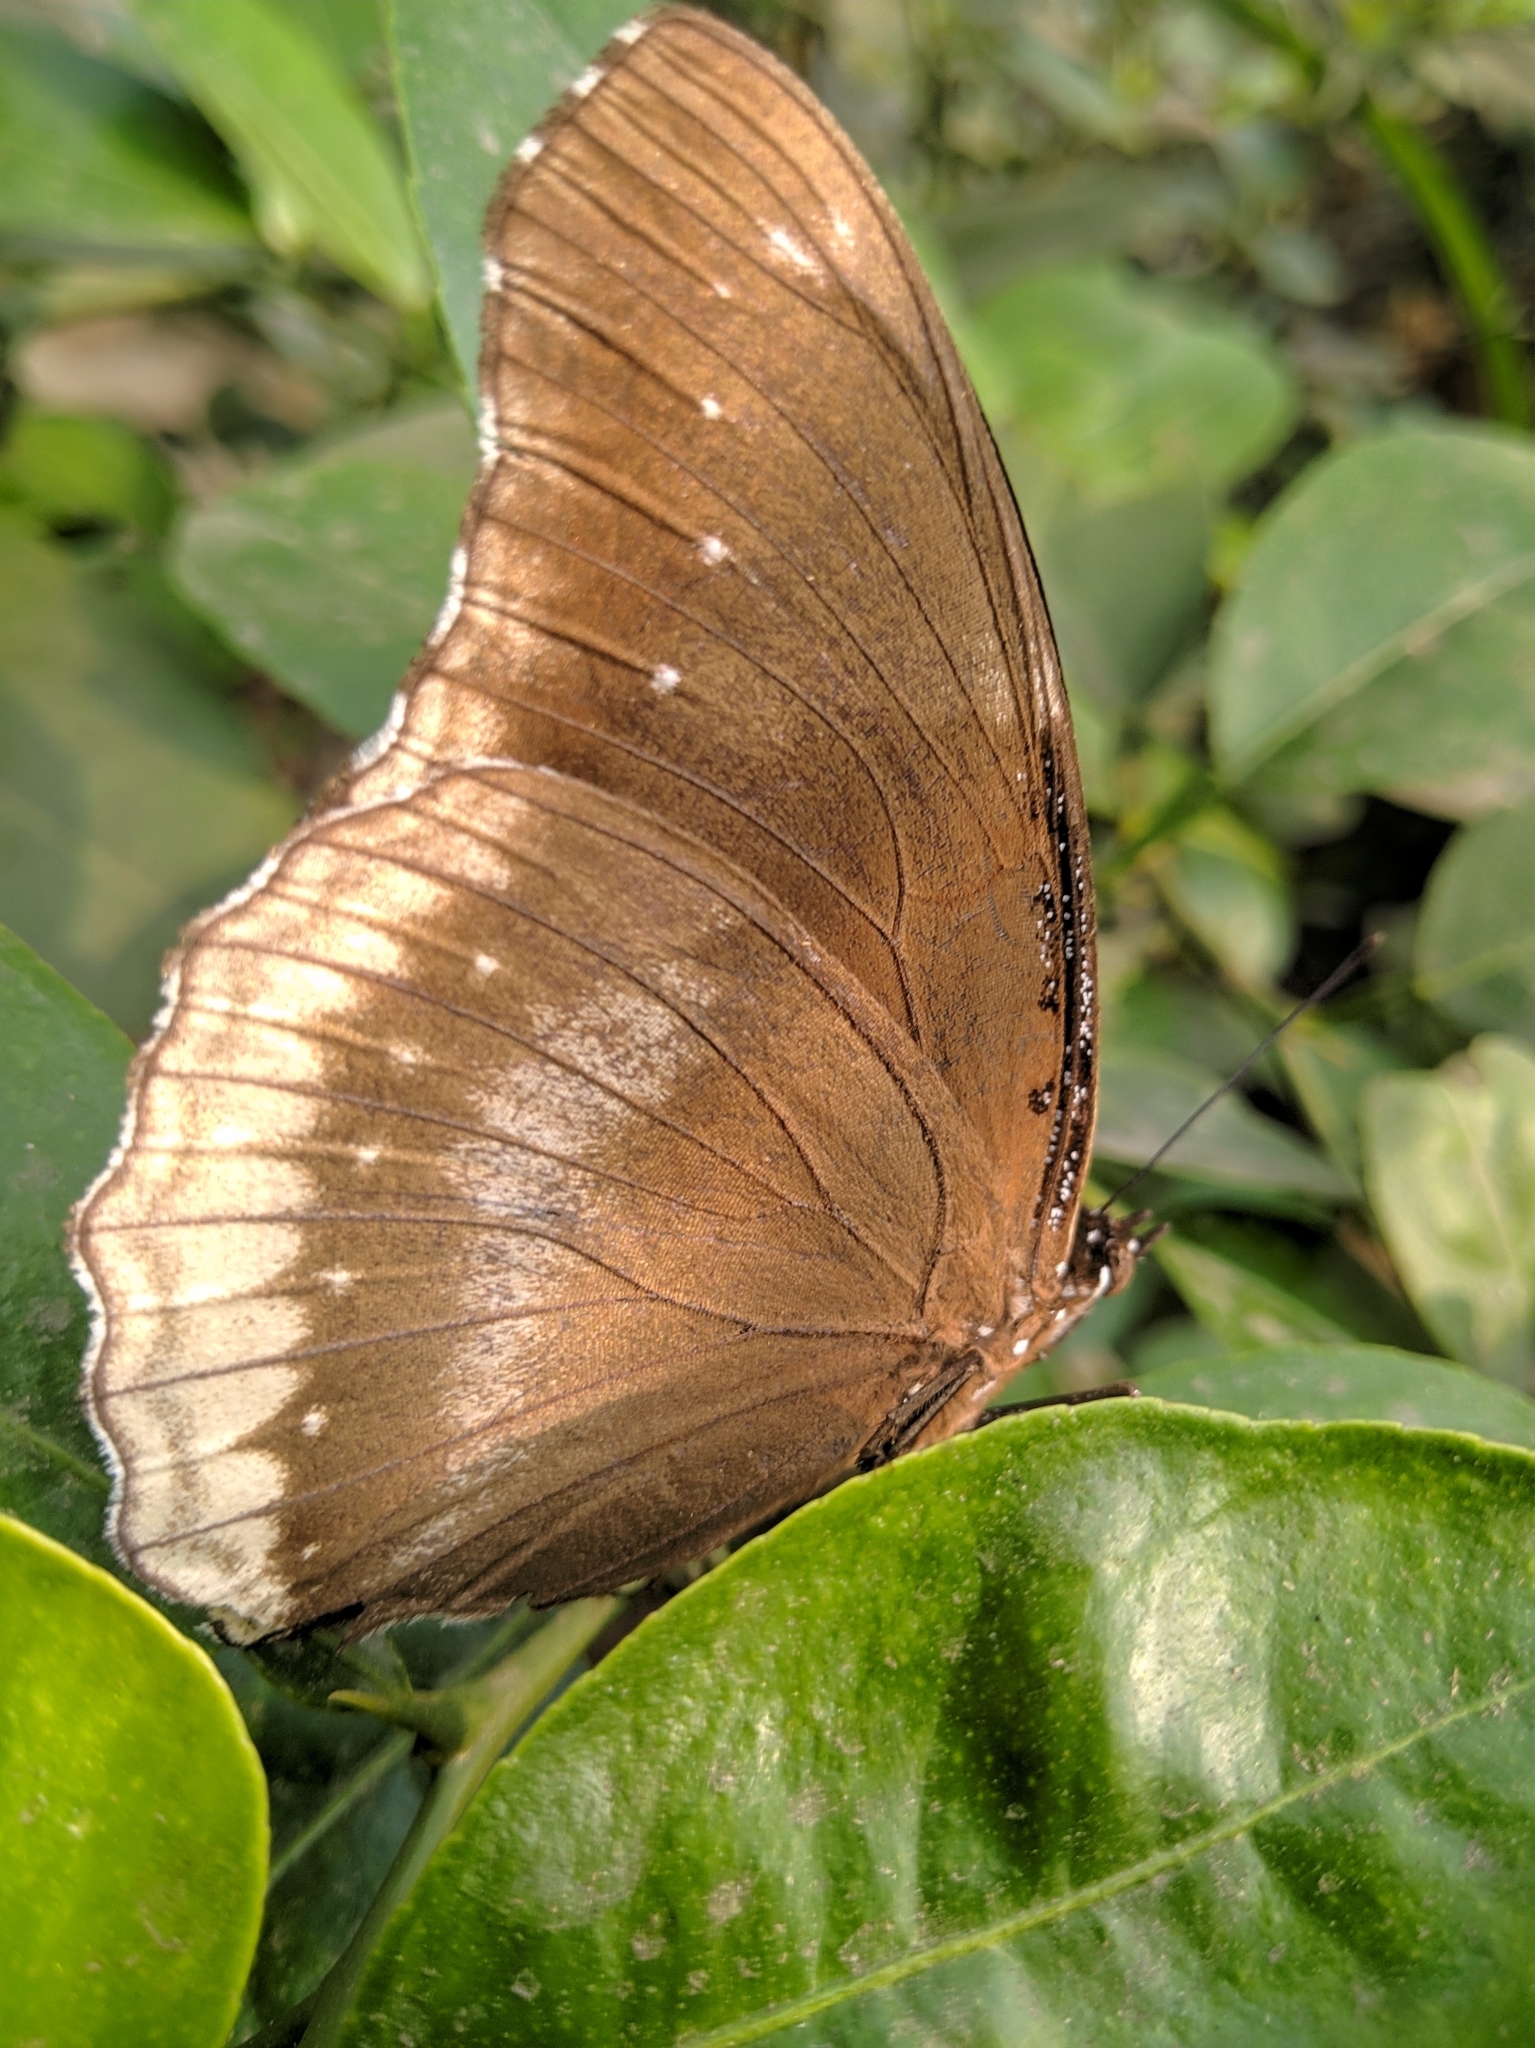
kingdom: Animalia
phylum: Arthropoda
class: Insecta
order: Lepidoptera
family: Nymphalidae
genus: Hypolimnas
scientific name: Hypolimnas bolina
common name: Great eggfly
